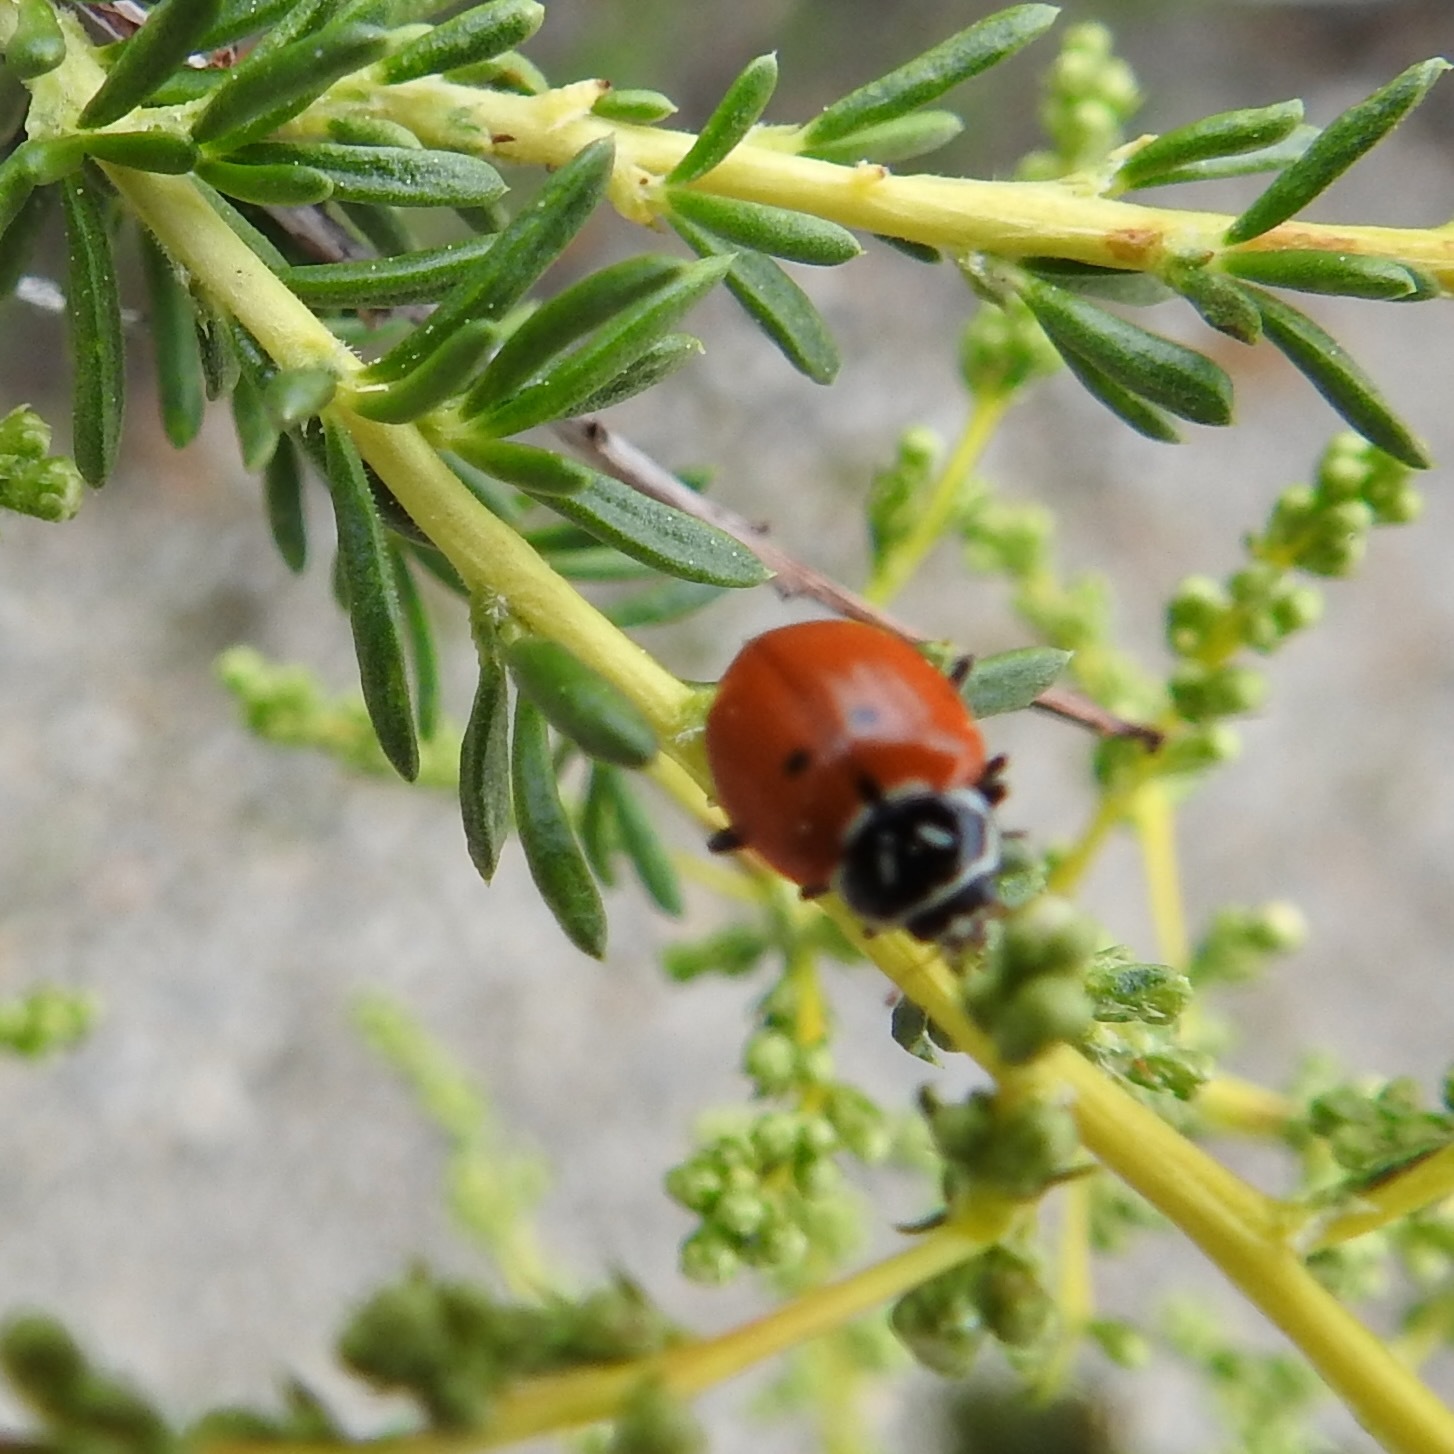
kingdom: Animalia
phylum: Arthropoda
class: Insecta
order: Coleoptera
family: Coccinellidae
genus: Hippodamia
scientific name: Hippodamia convergens
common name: Convergent lady beetle
